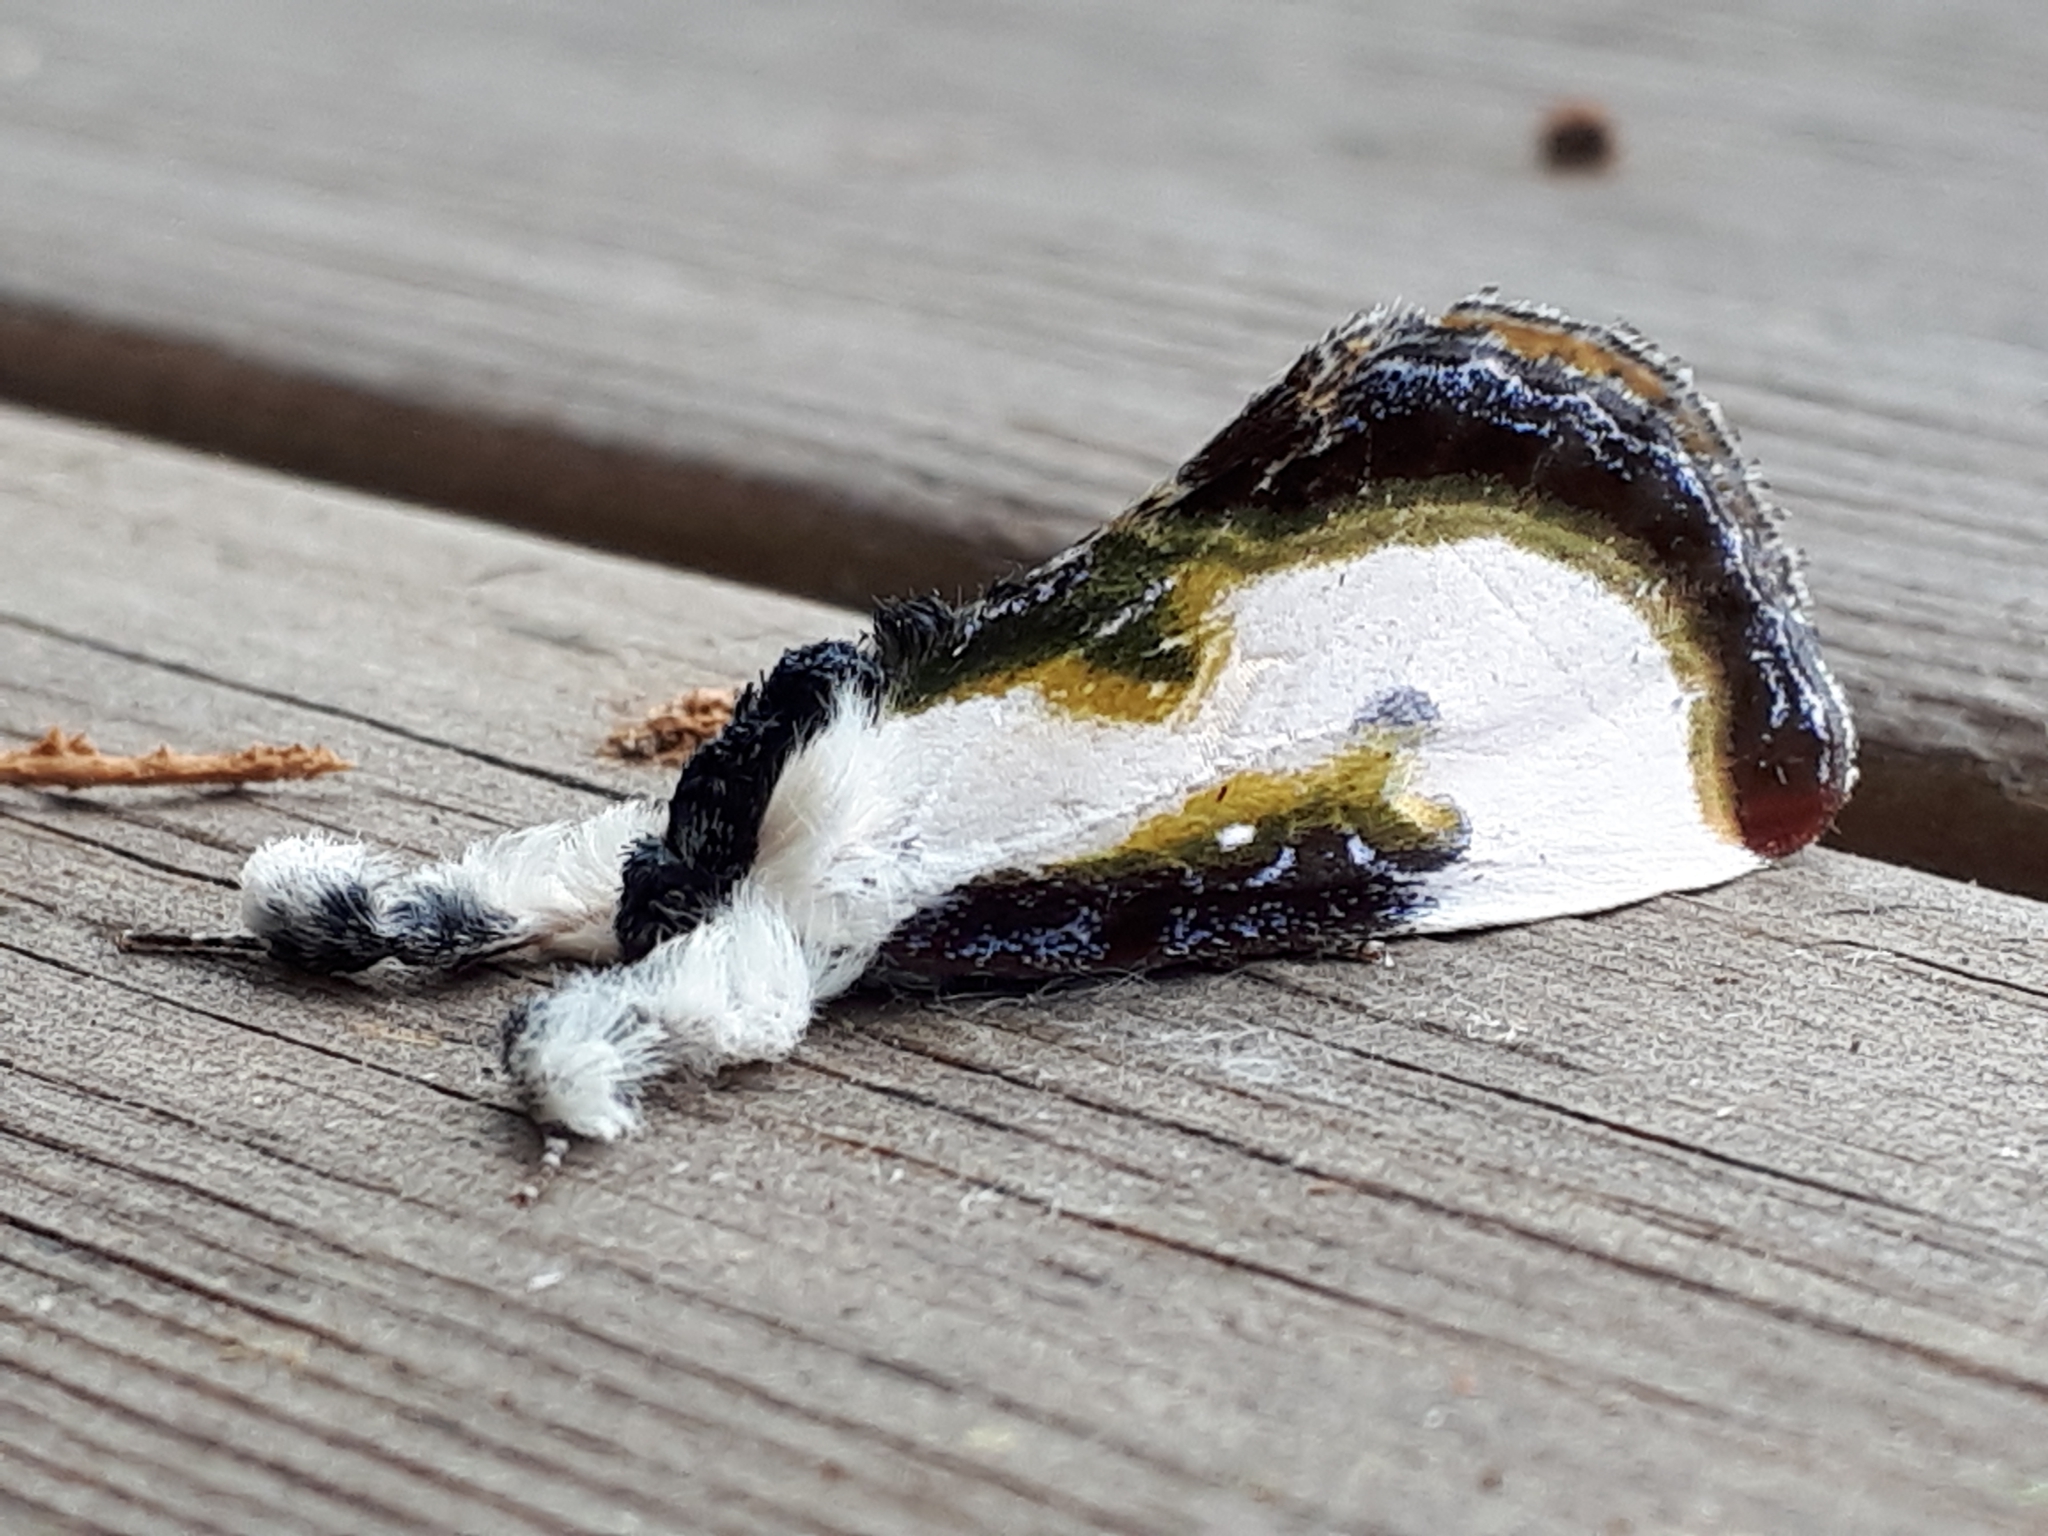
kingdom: Animalia
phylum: Arthropoda
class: Insecta
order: Lepidoptera
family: Noctuidae
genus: Eudryas
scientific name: Eudryas grata
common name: Beautiful wood-nymph
